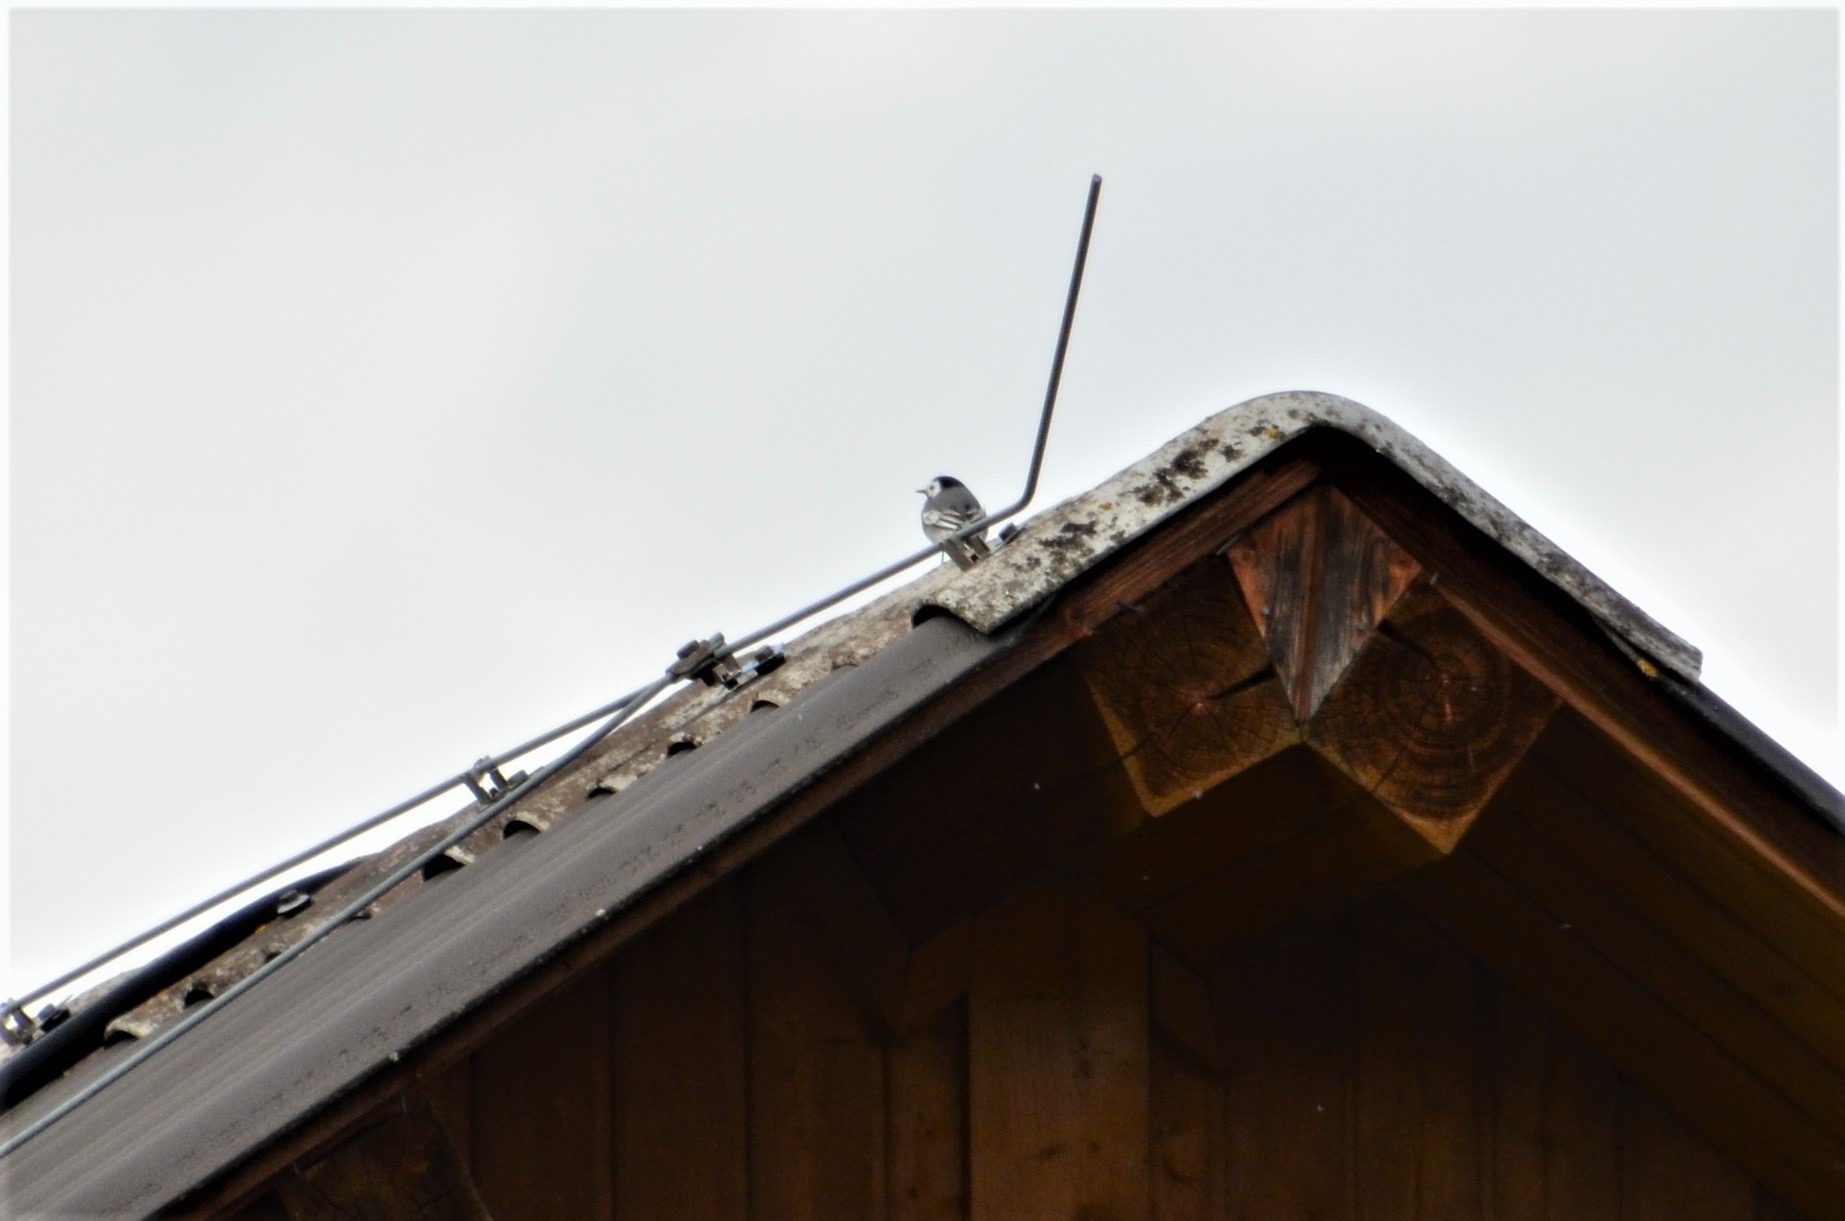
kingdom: Animalia
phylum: Chordata
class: Aves
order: Passeriformes
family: Motacillidae
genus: Motacilla
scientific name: Motacilla alba
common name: White wagtail
